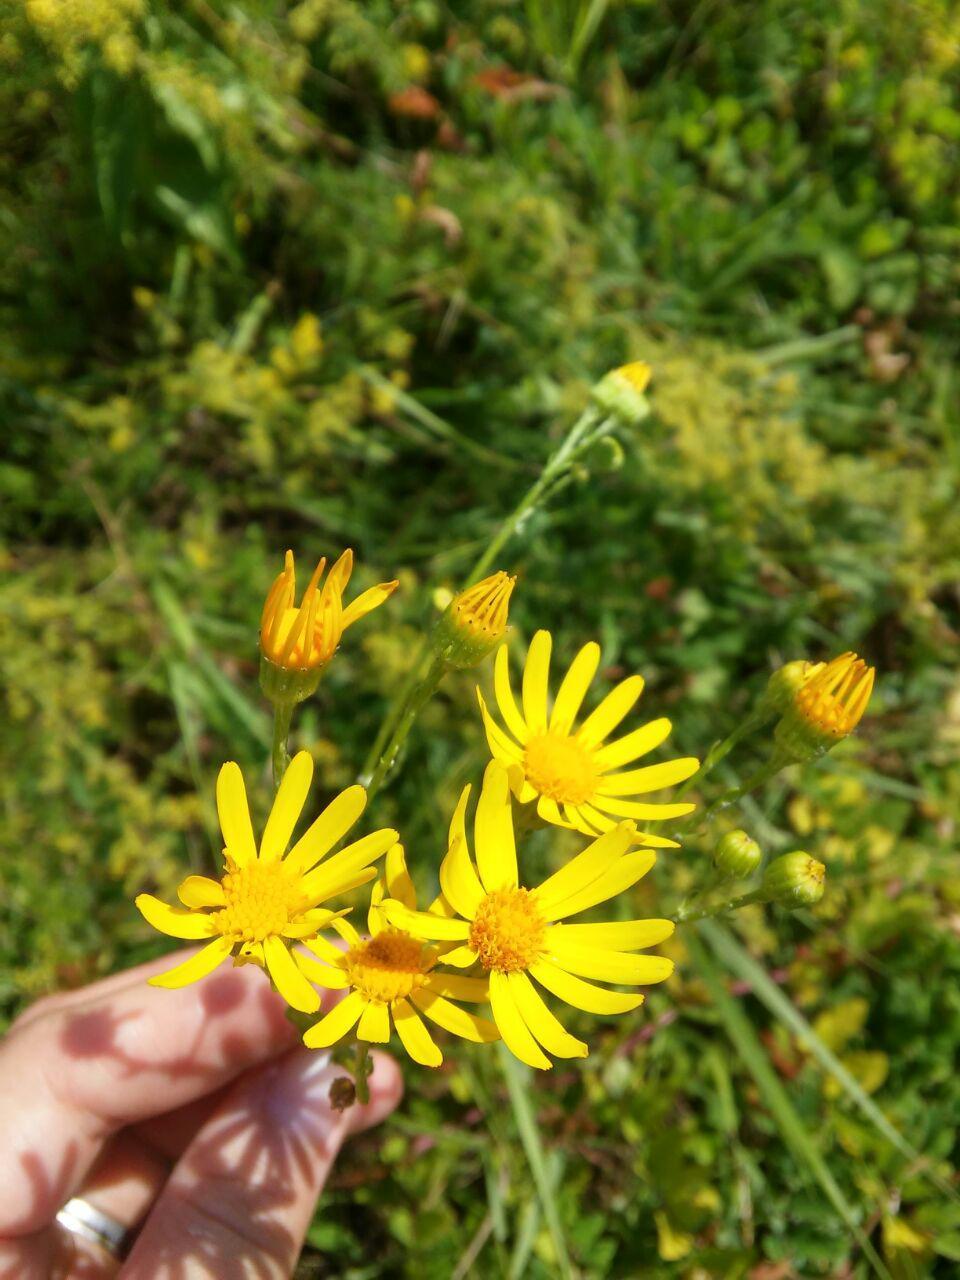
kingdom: Plantae
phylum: Tracheophyta
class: Magnoliopsida
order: Asterales
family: Asteraceae
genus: Jacobaea
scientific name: Jacobaea vulgaris
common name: Stinking willie
